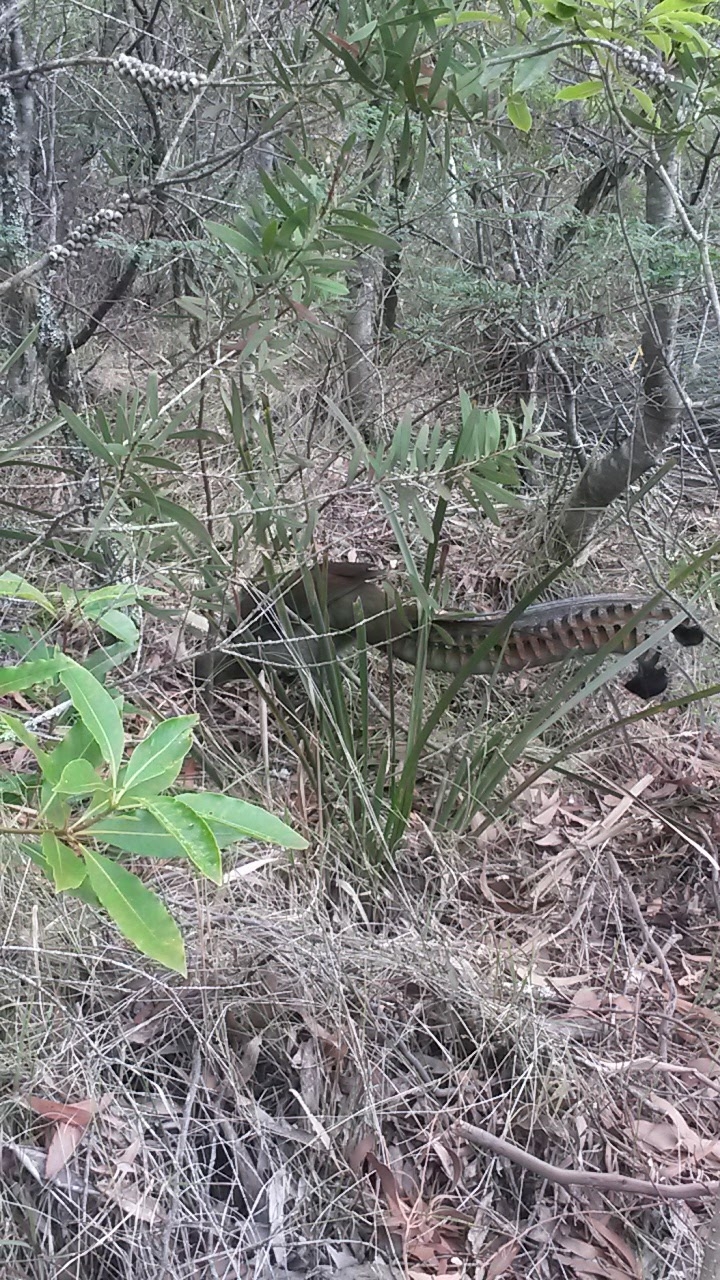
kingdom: Animalia
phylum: Chordata
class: Aves
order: Passeriformes
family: Menuridae
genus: Menura
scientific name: Menura novaehollandiae
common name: Superb lyrebird
